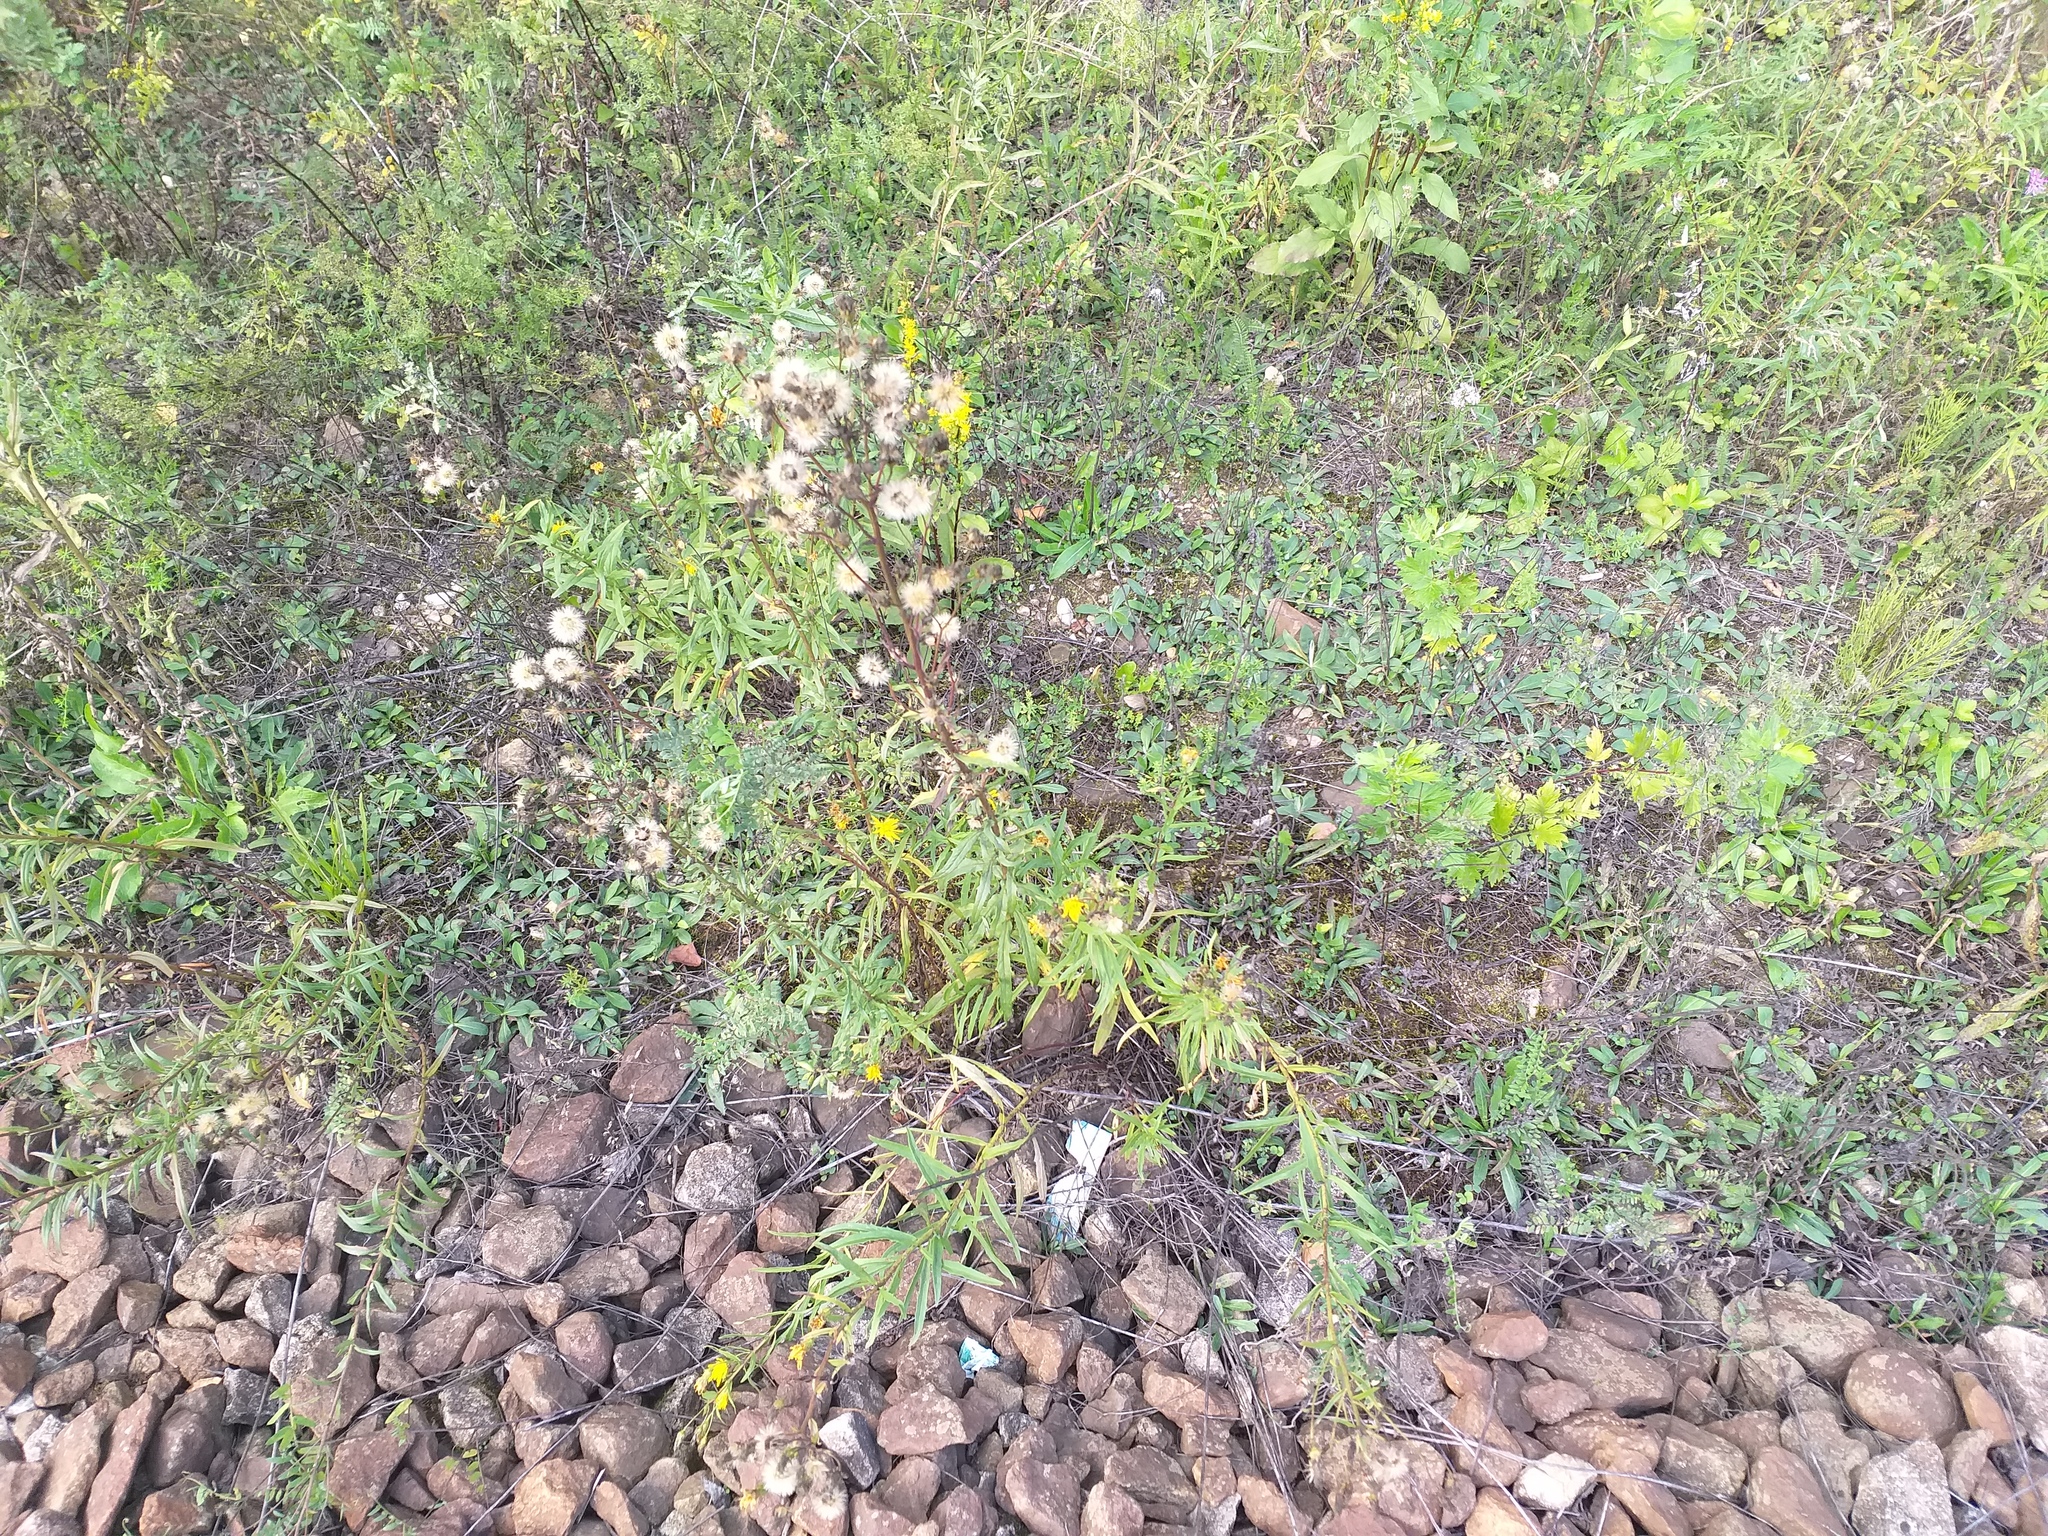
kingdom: Plantae
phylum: Tracheophyta
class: Magnoliopsida
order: Asterales
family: Asteraceae
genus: Hieracium
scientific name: Hieracium umbellatum
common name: Northern hawkweed
